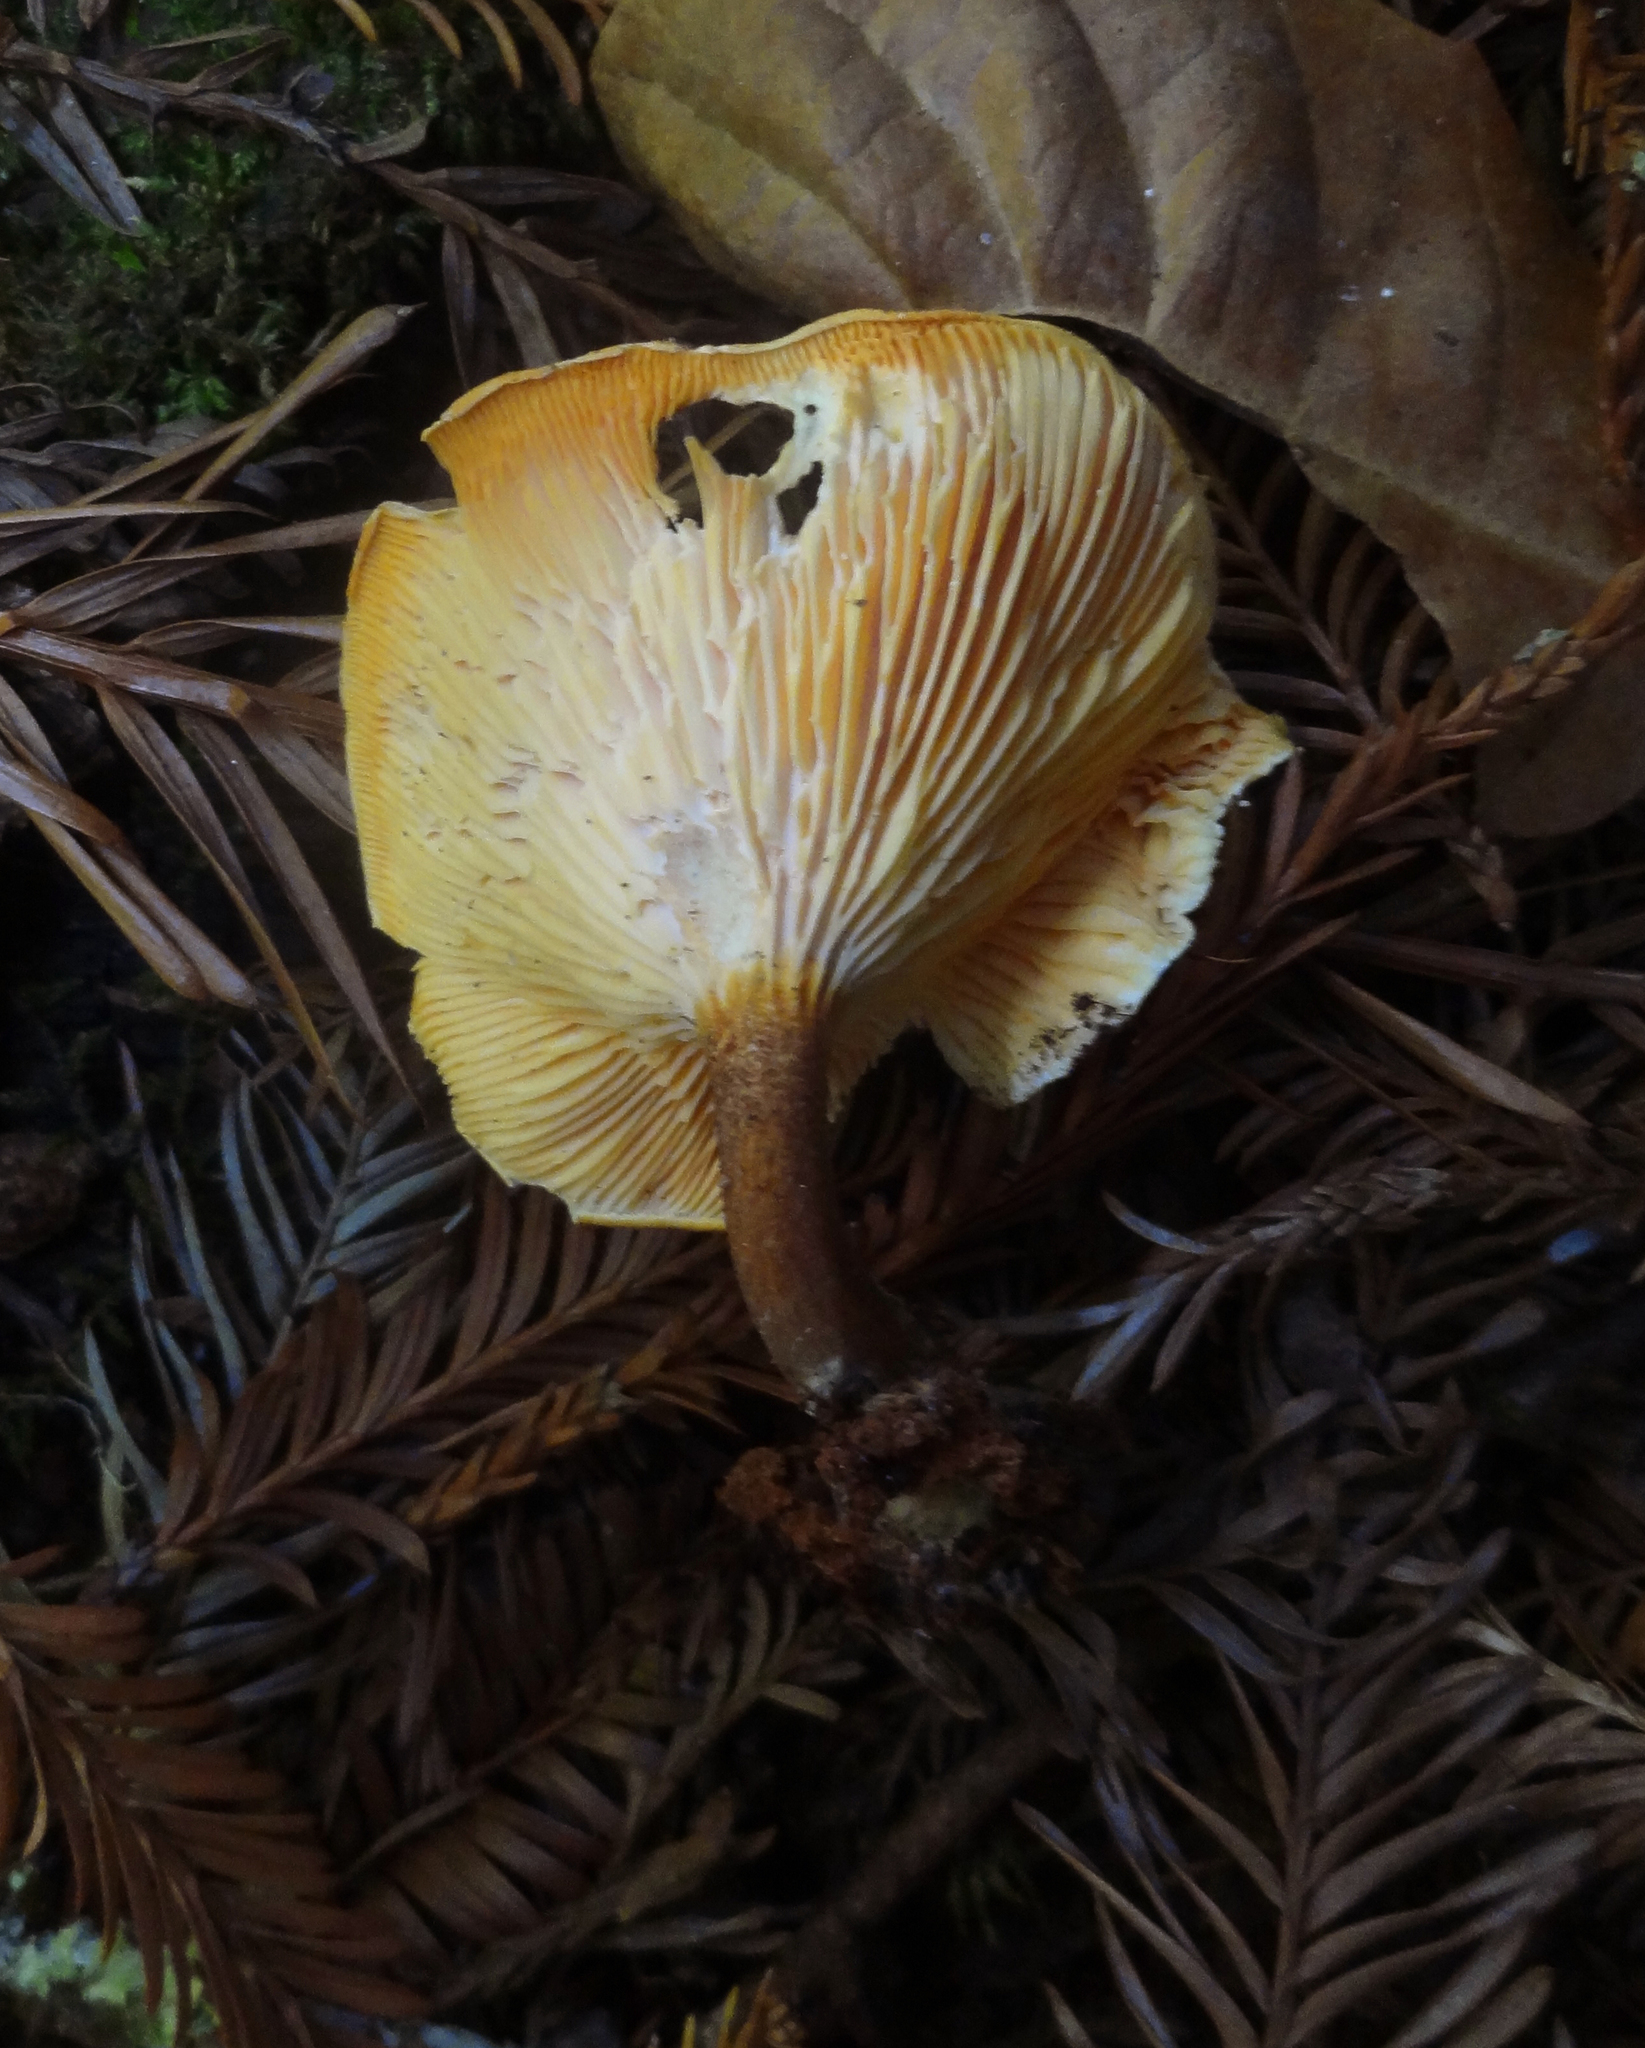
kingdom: Fungi
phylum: Basidiomycota
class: Agaricomycetes
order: Boletales
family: Hygrophoropsidaceae
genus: Hygrophoropsis
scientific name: Hygrophoropsis aurantiaca
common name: False chanterelle
